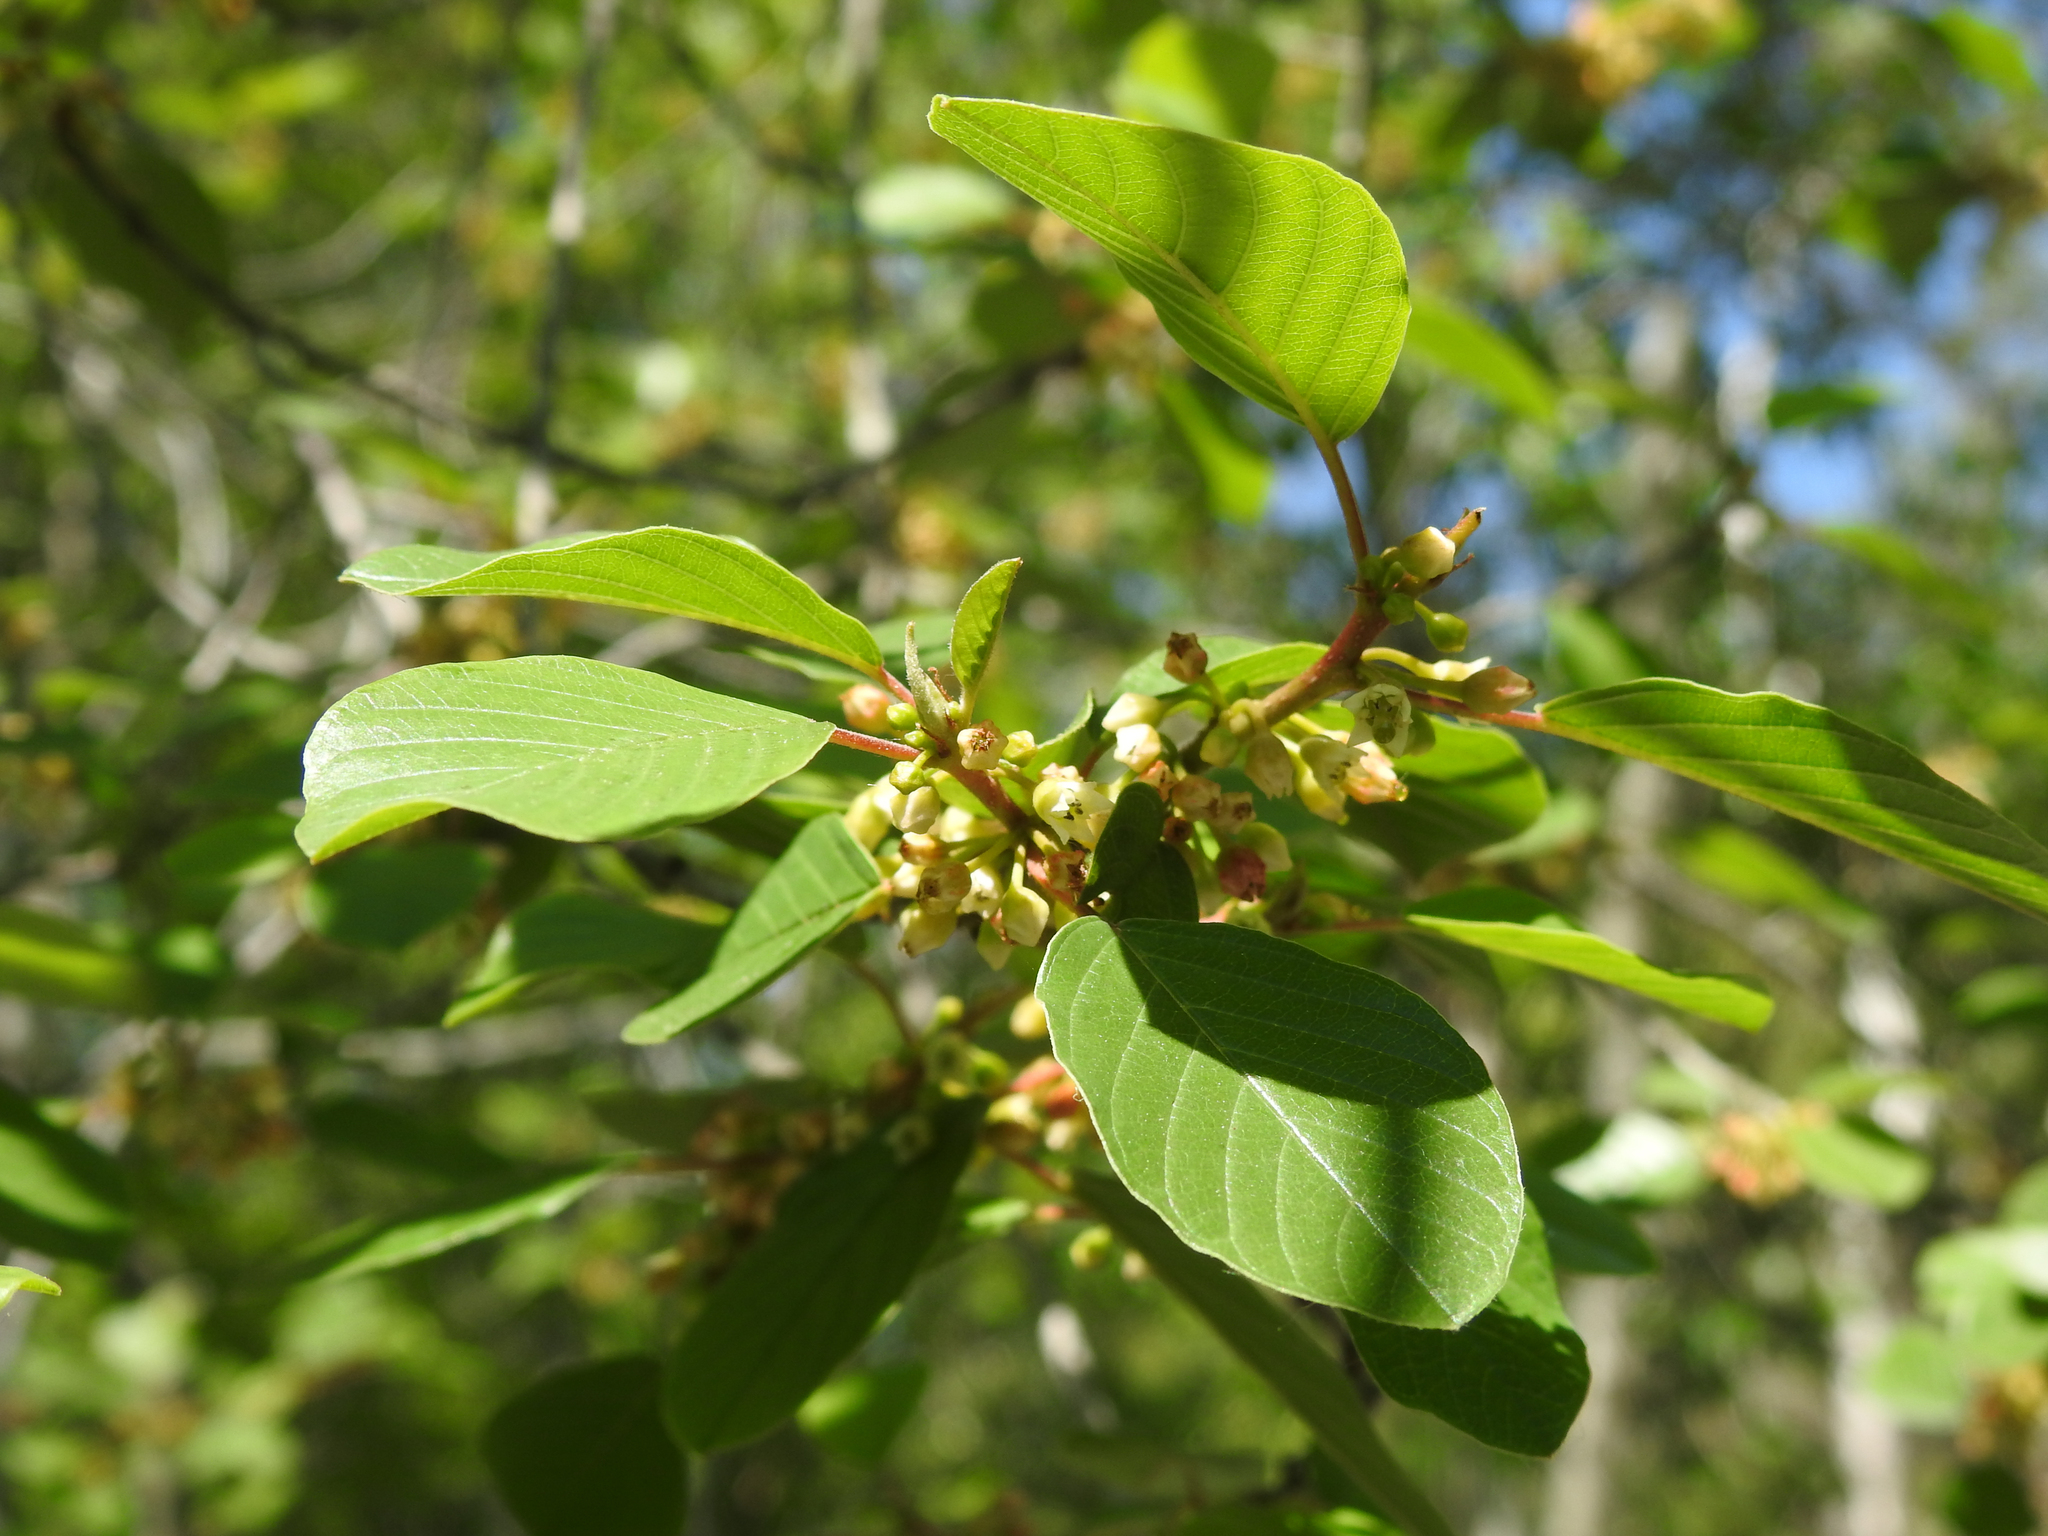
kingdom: Plantae
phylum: Tracheophyta
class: Magnoliopsida
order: Rosales
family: Rhamnaceae
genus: Frangula
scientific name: Frangula alnus
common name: Alder buckthorn
